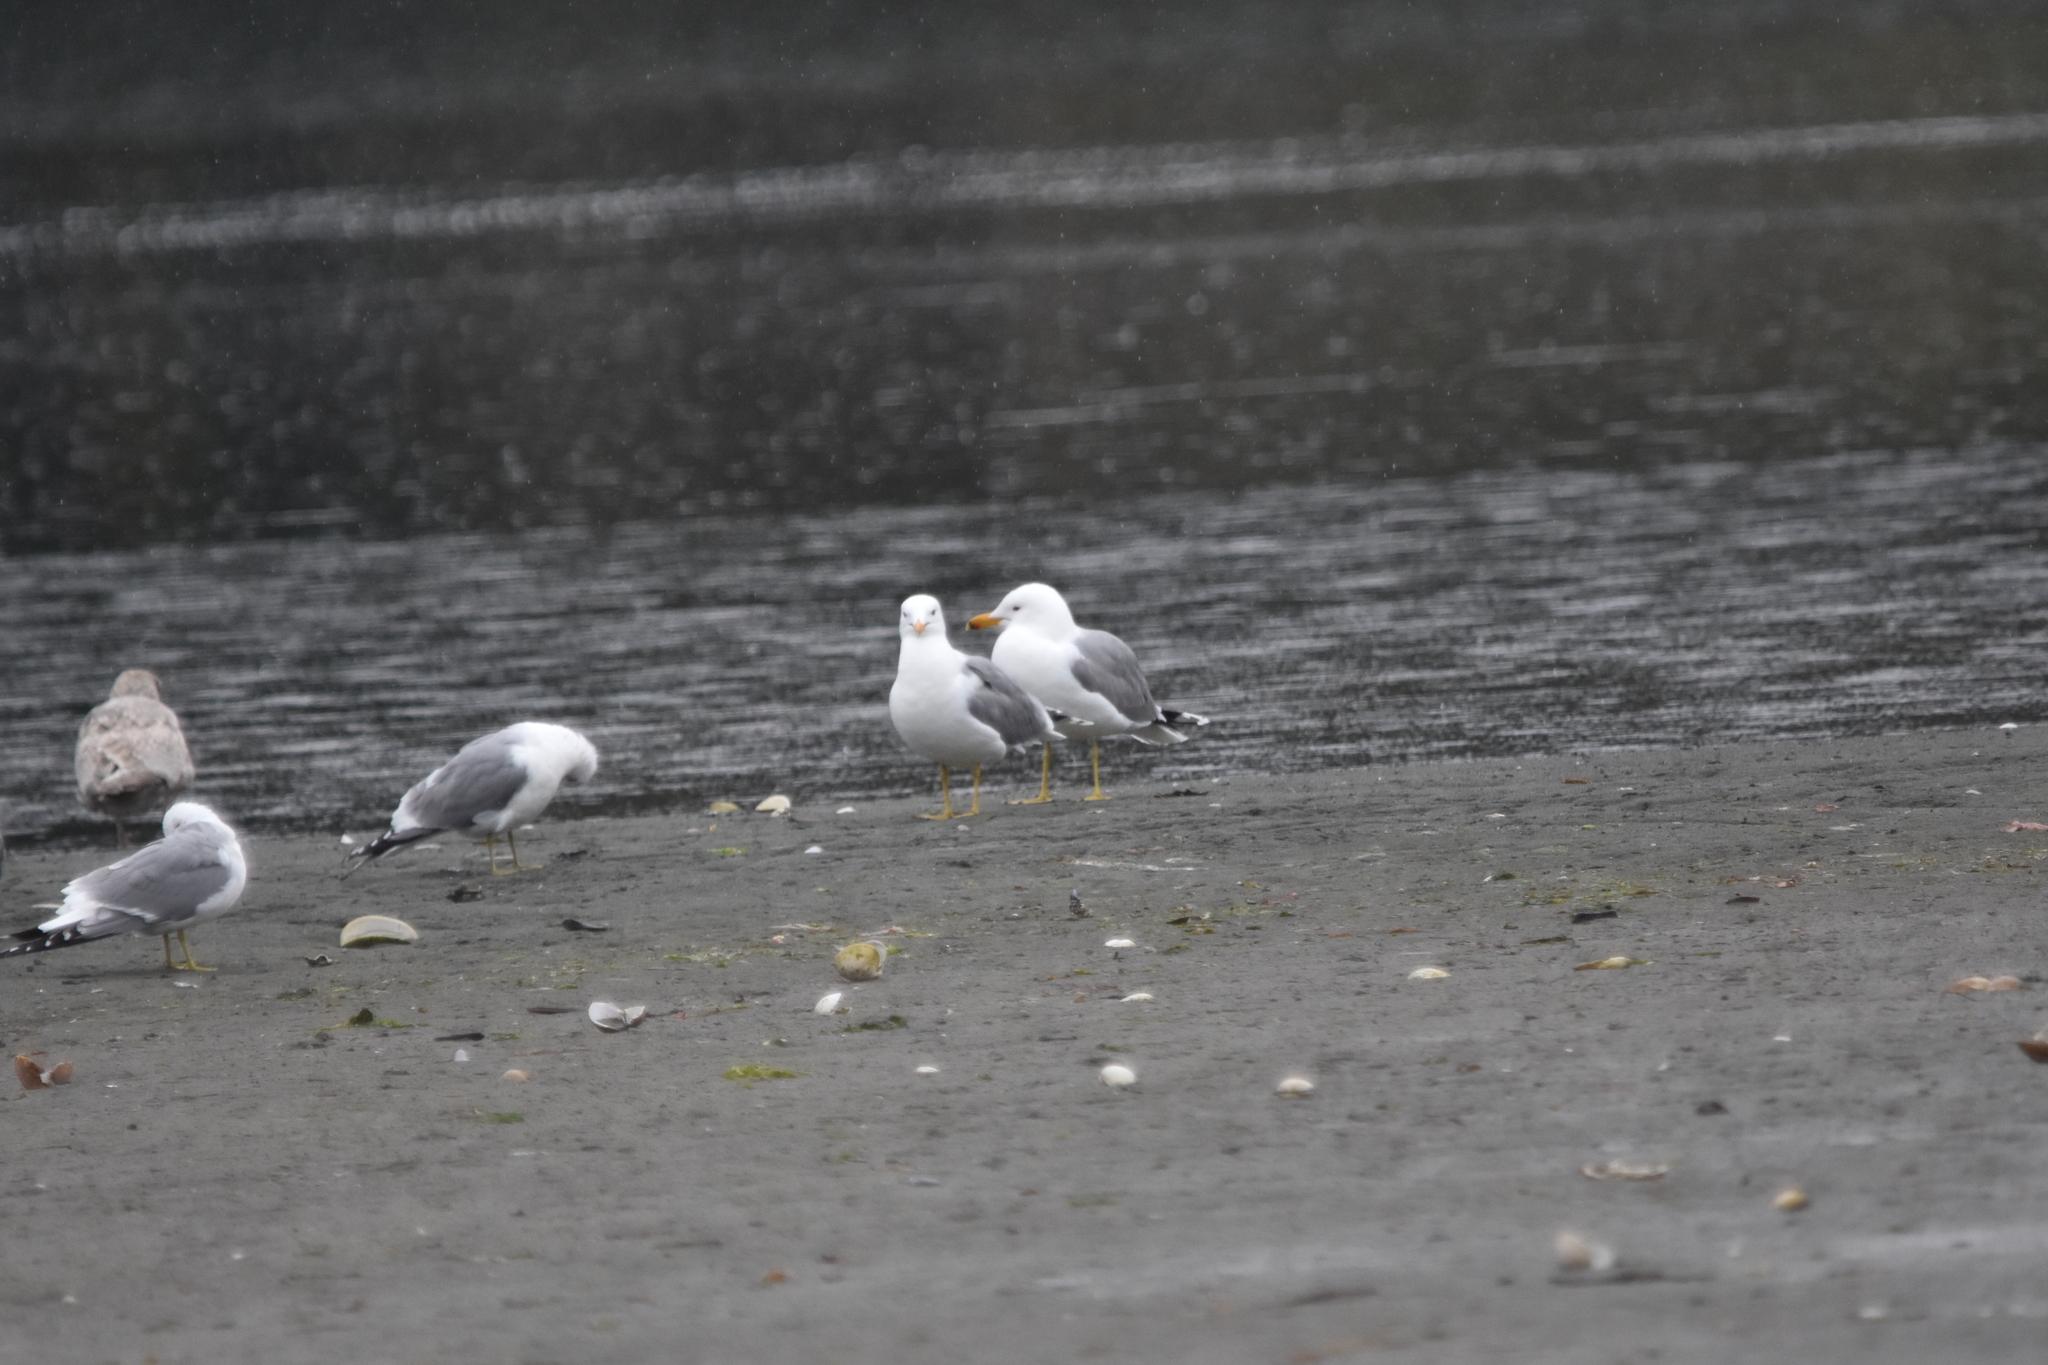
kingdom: Animalia
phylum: Chordata
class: Aves
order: Charadriiformes
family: Laridae
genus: Larus
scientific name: Larus californicus
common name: California gull
